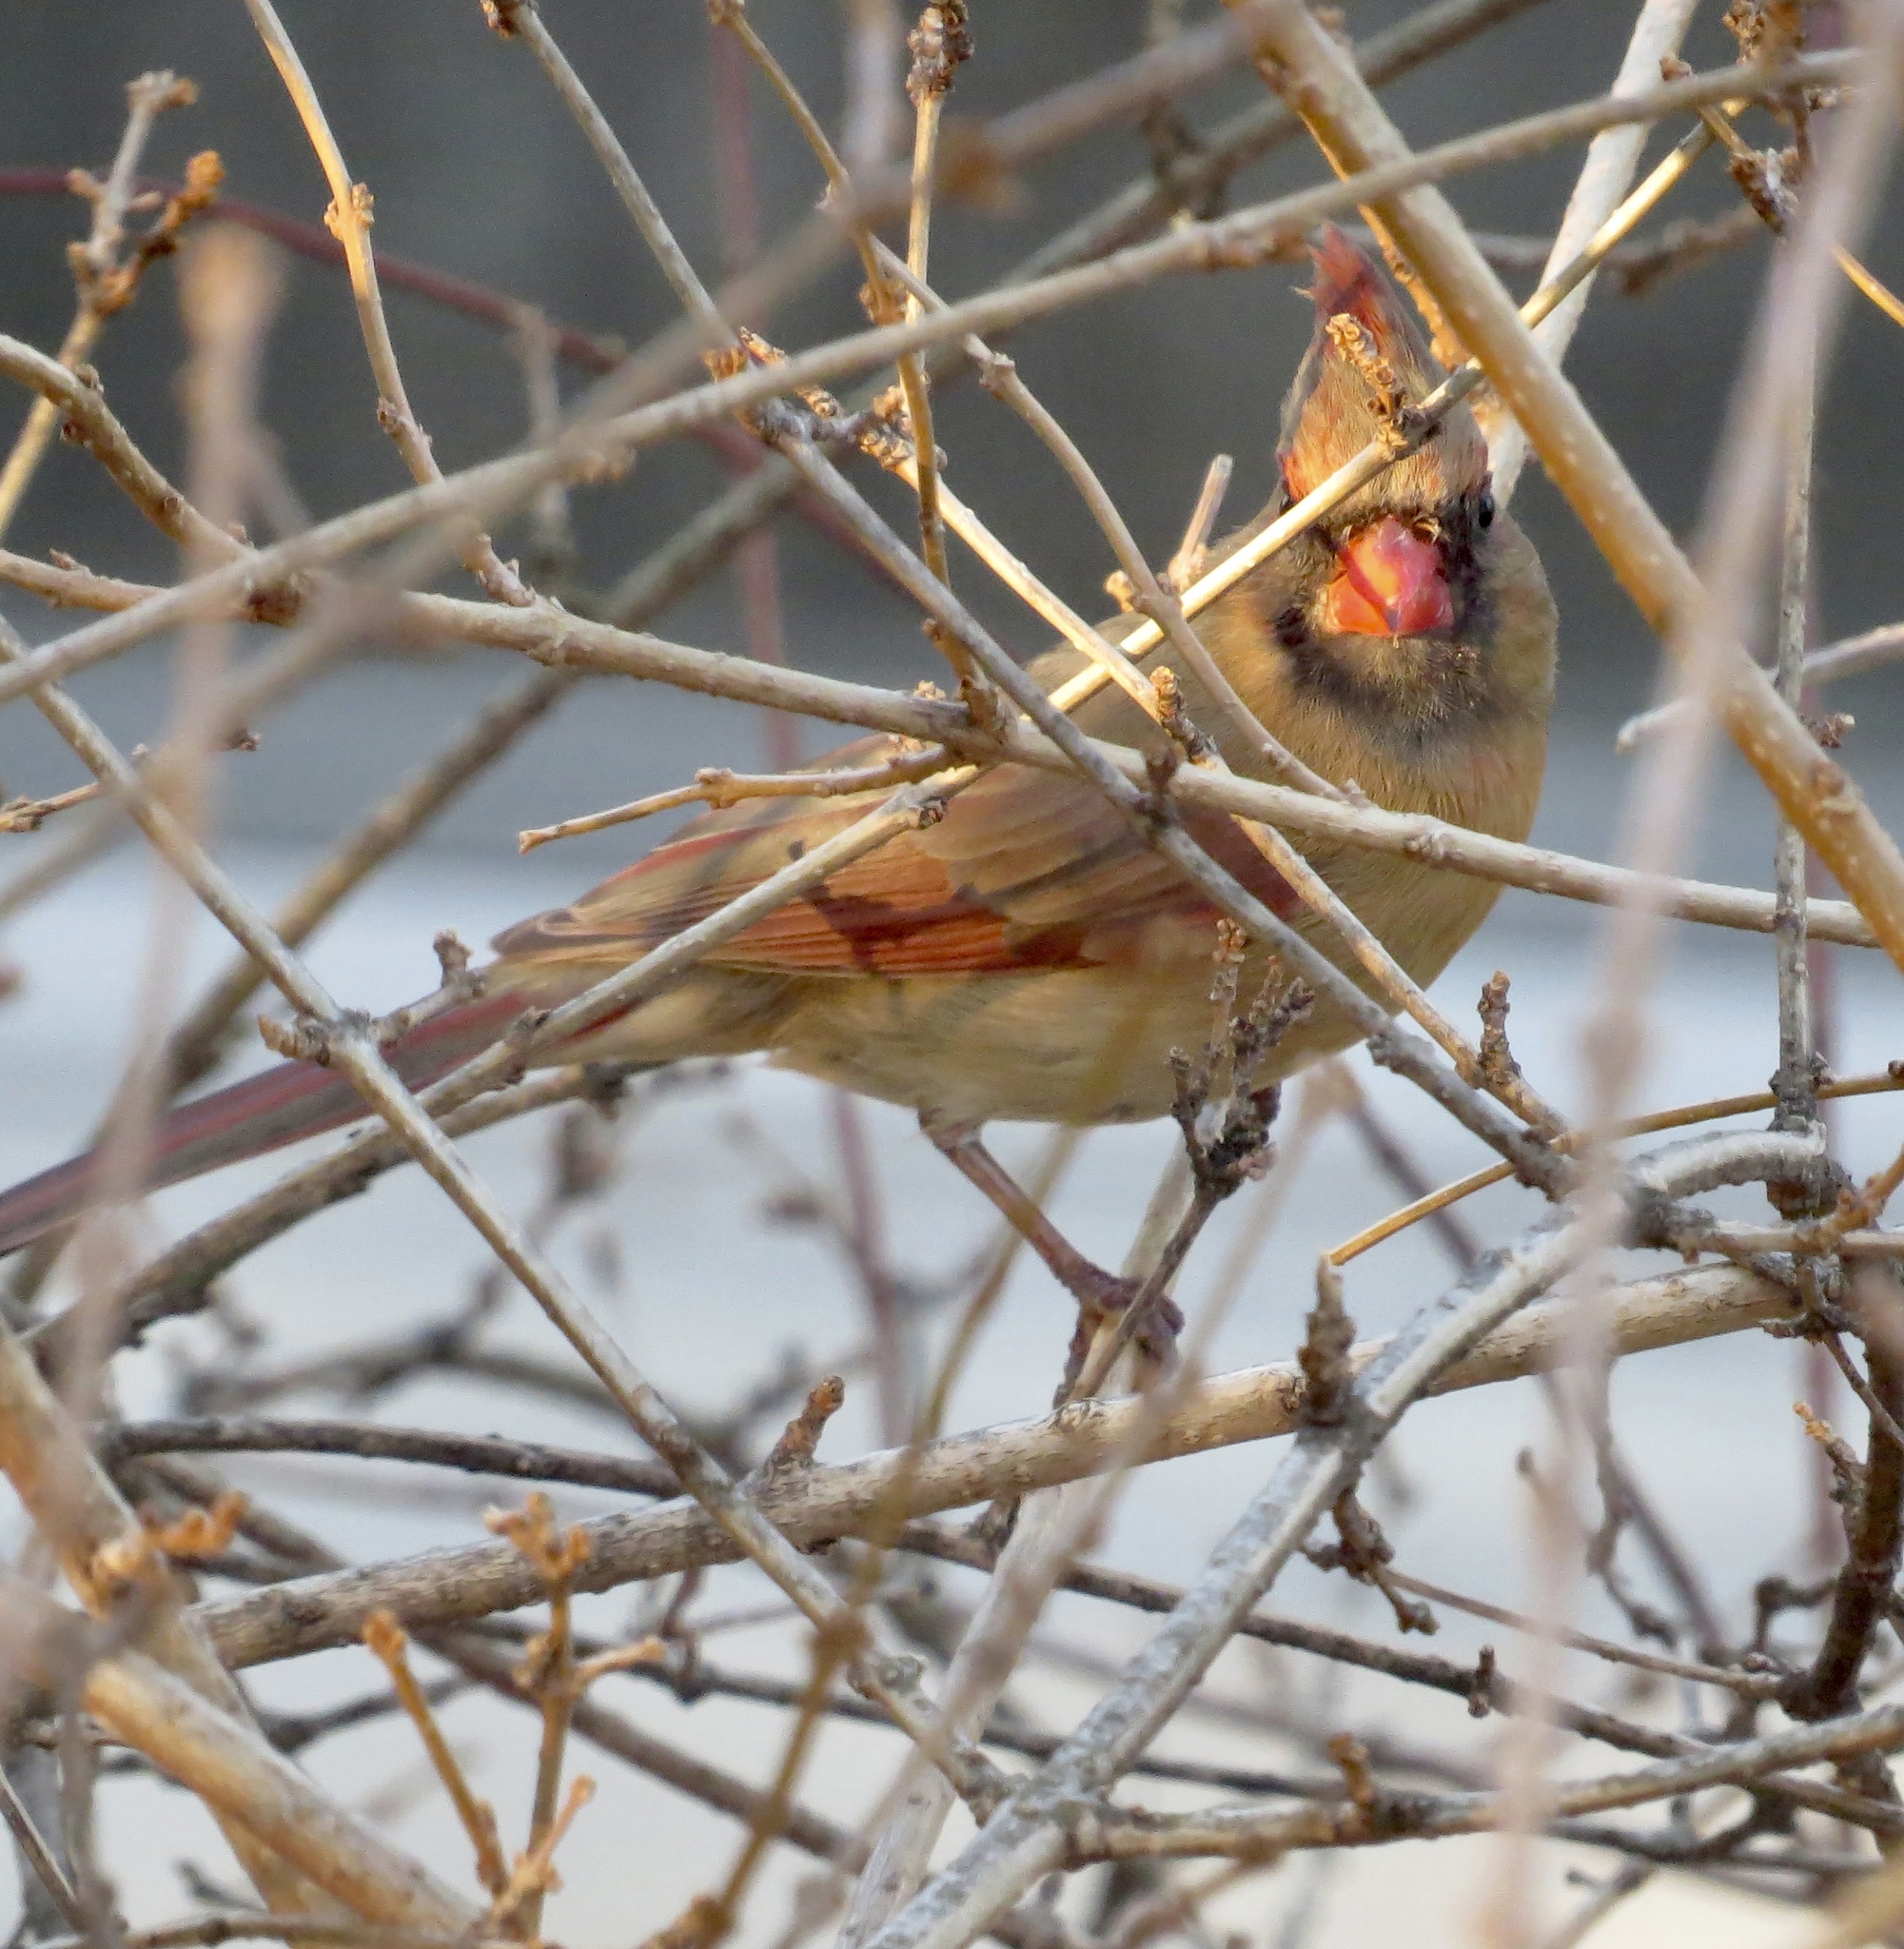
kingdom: Animalia
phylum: Chordata
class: Aves
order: Passeriformes
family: Cardinalidae
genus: Cardinalis
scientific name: Cardinalis cardinalis
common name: Northern cardinal
